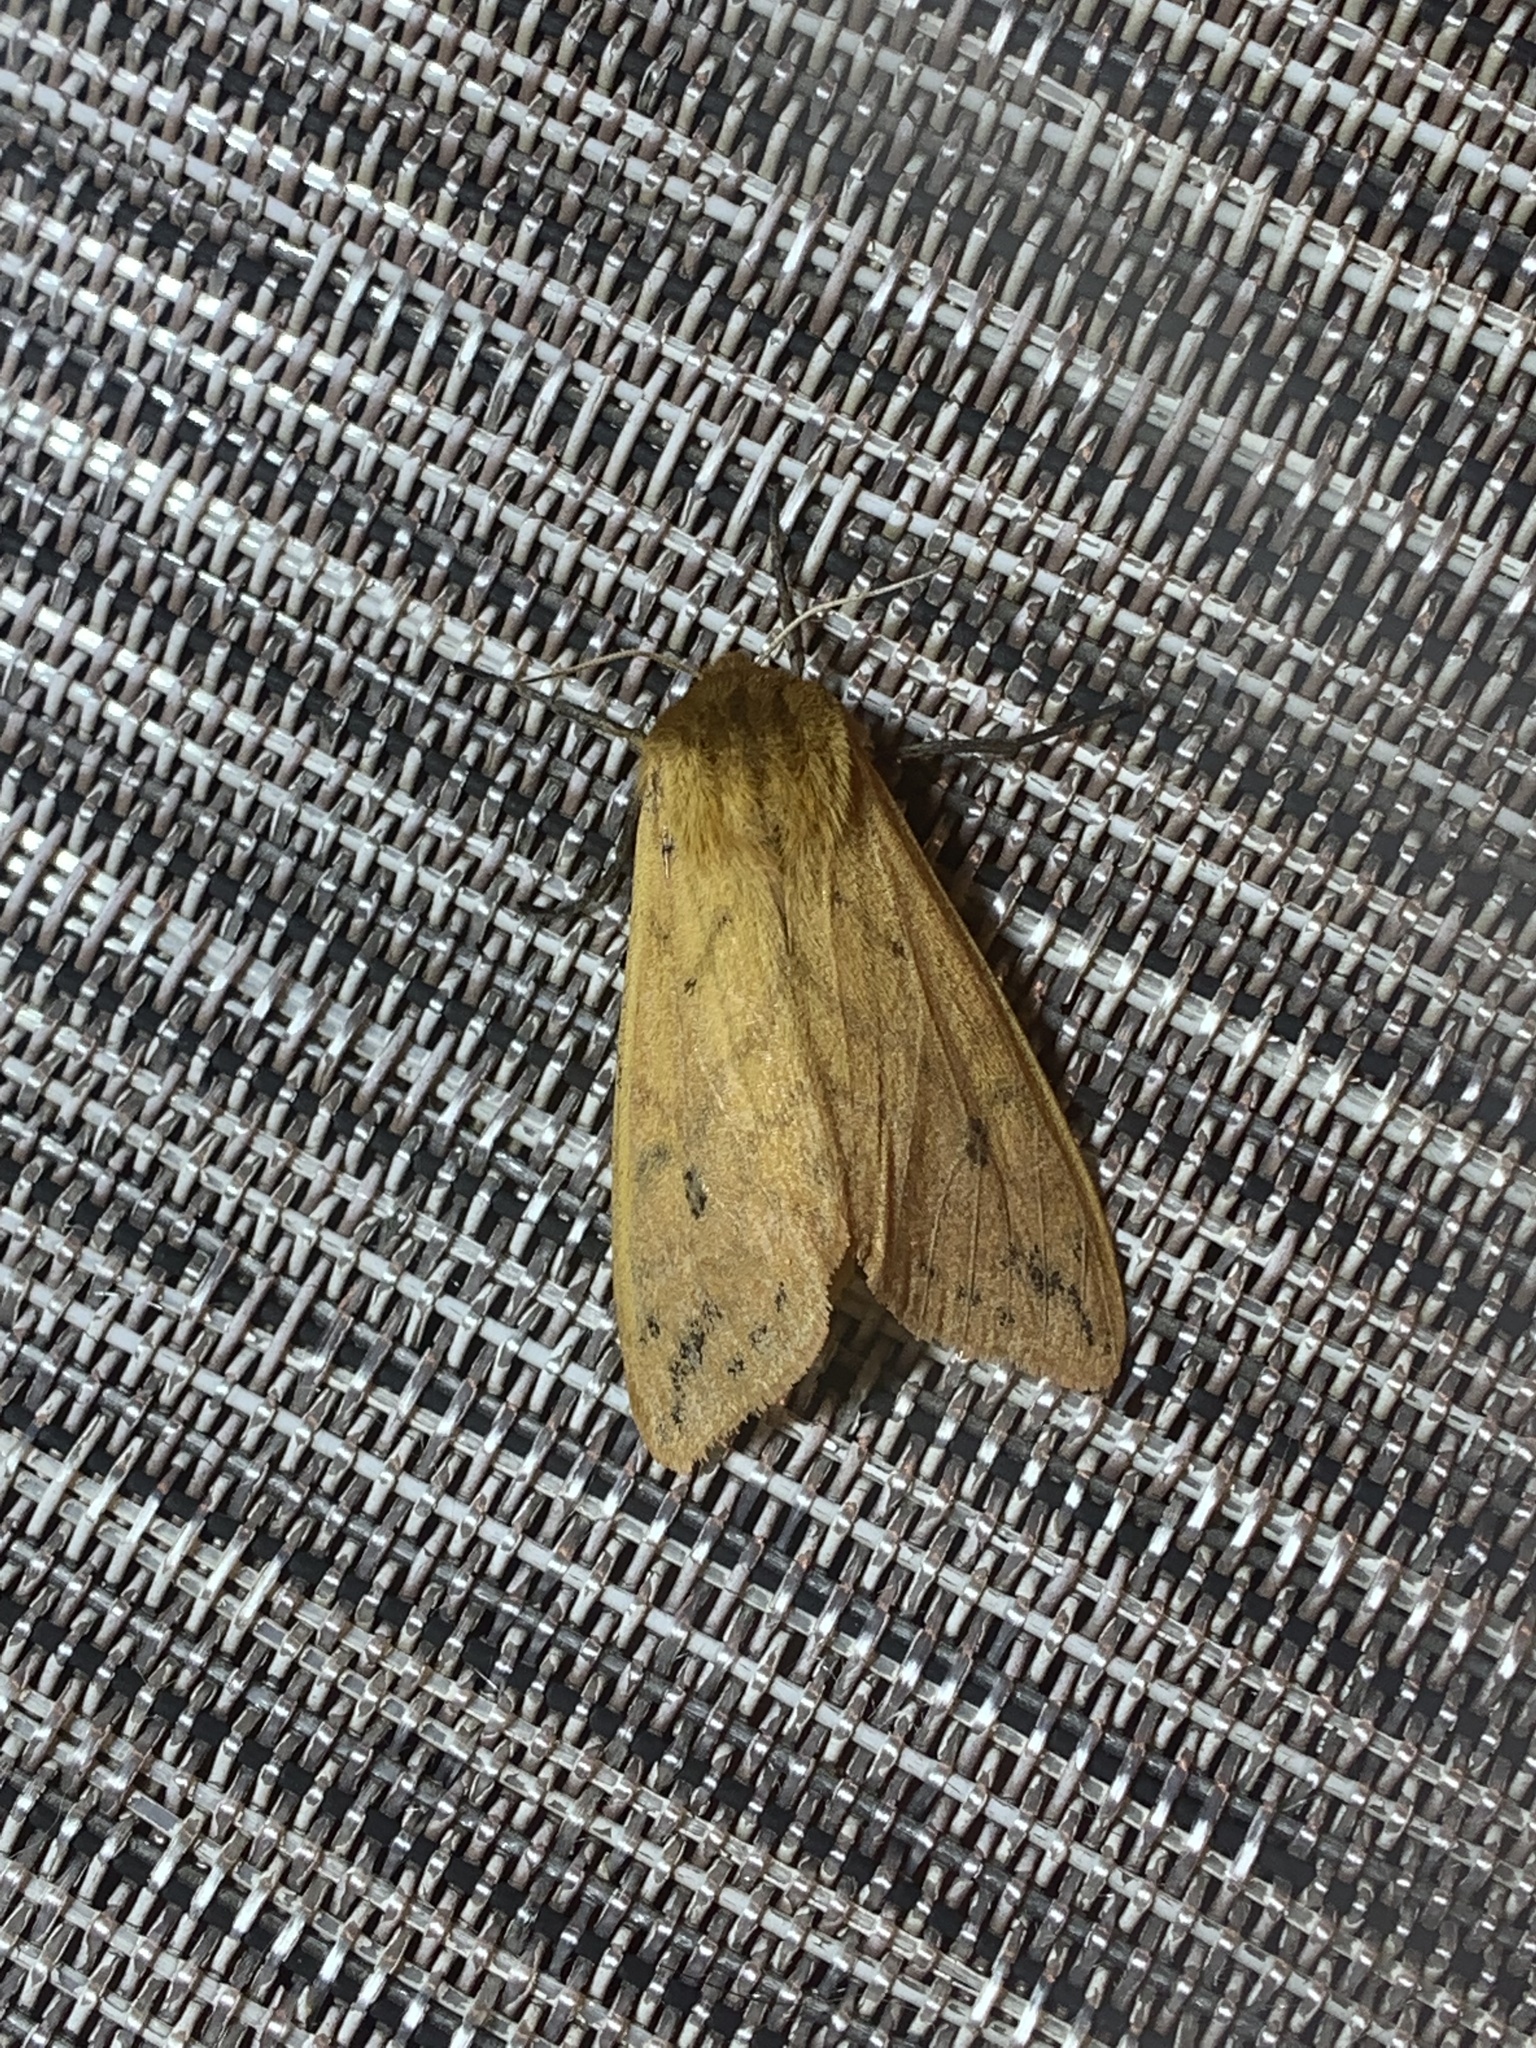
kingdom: Animalia
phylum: Arthropoda
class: Insecta
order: Lepidoptera
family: Erebidae
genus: Pyrrharctia
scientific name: Pyrrharctia isabella
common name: Isabella tiger moth
